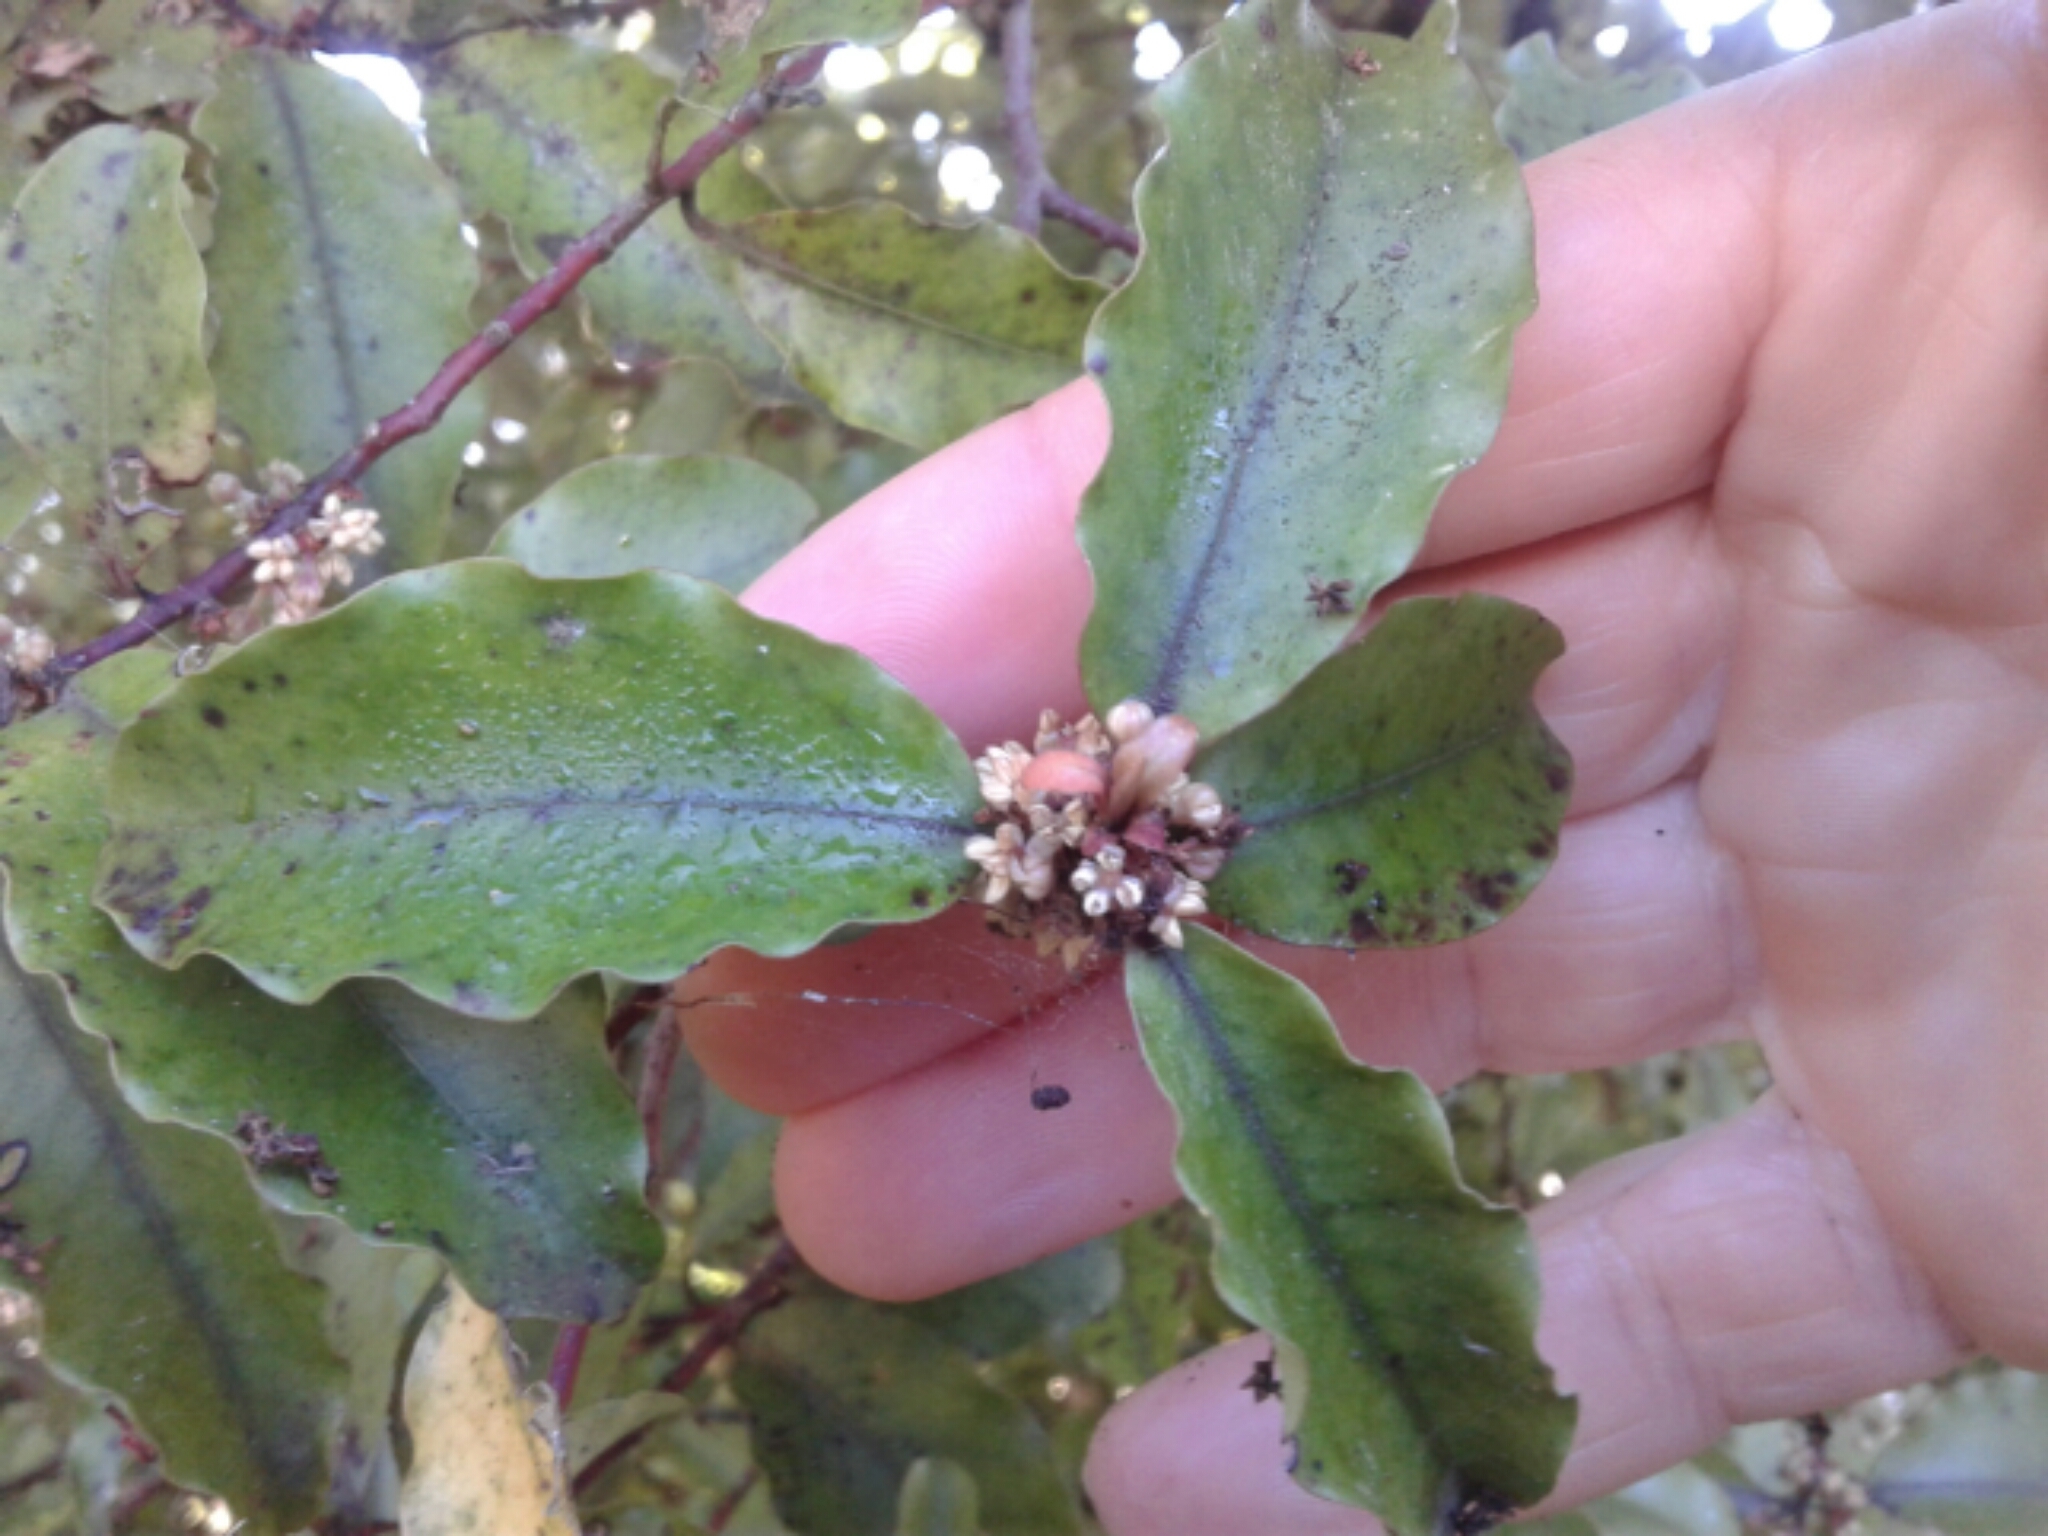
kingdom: Plantae
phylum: Tracheophyta
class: Magnoliopsida
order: Ericales
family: Primulaceae
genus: Myrsine
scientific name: Myrsine australis
